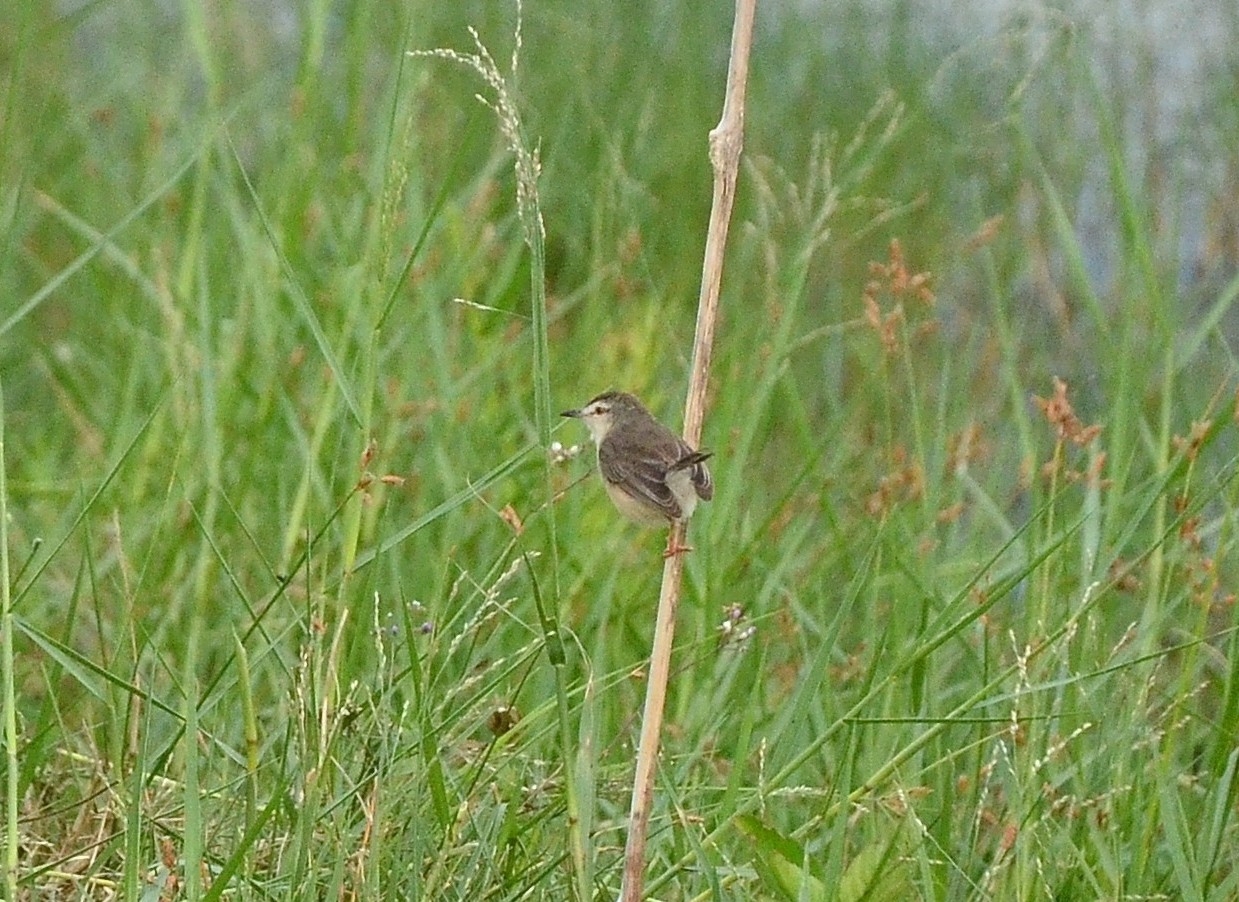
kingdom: Animalia
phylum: Chordata
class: Aves
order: Passeriformes
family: Cisticolidae
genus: Prinia
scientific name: Prinia inornata
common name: Plain prinia
